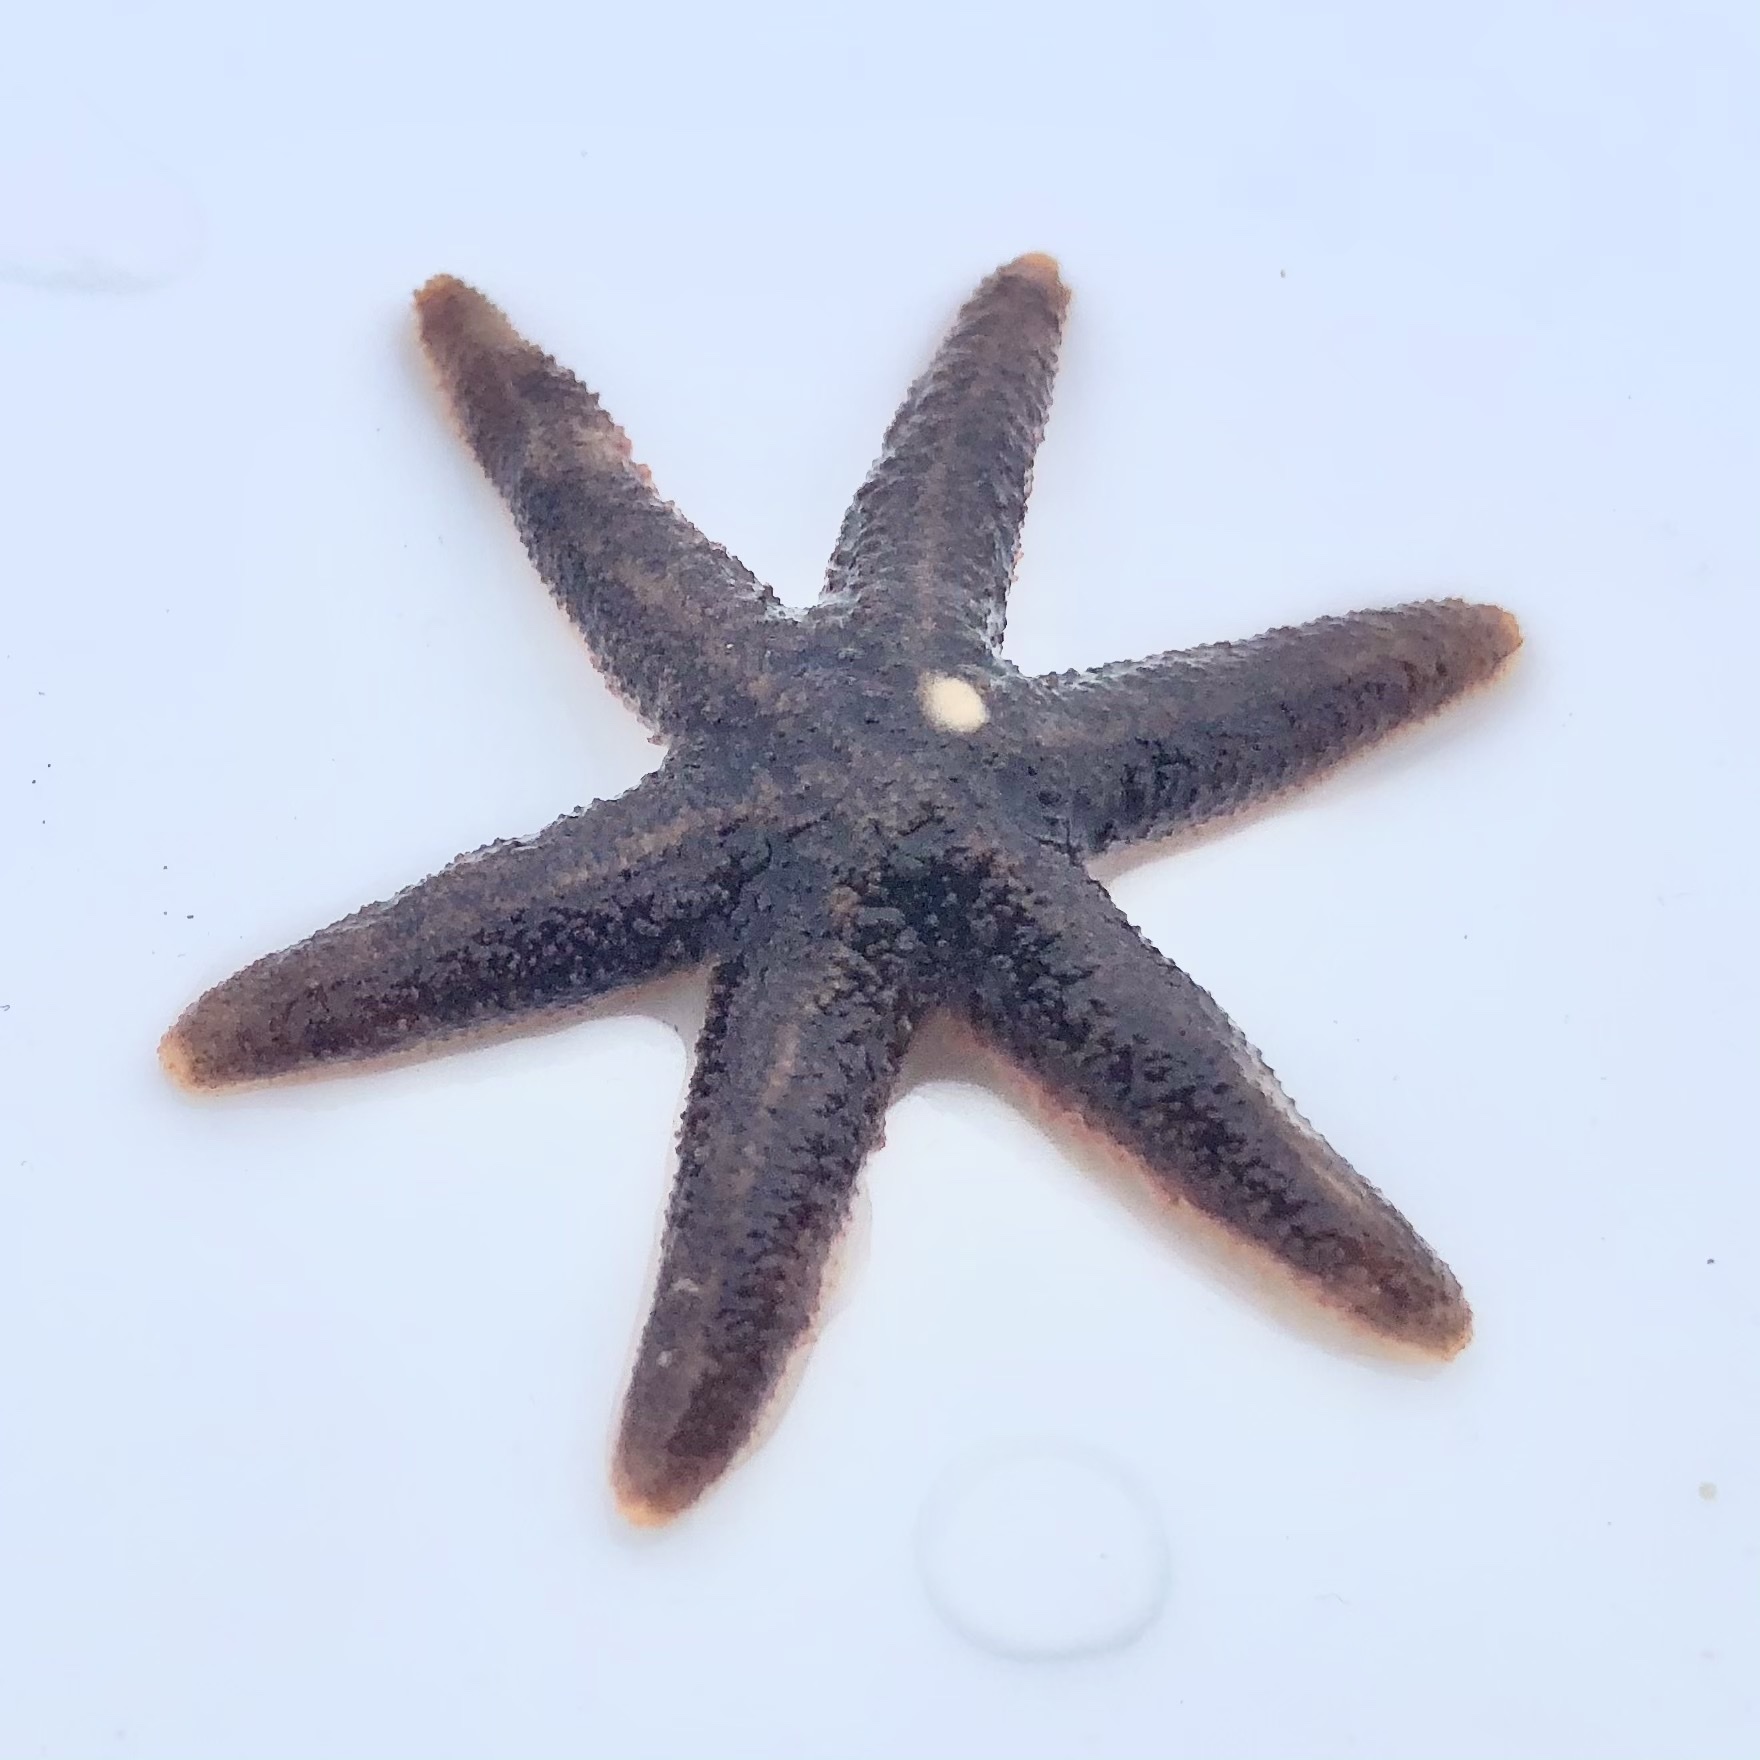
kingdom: Animalia
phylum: Echinodermata
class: Asteroidea
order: Forcipulatida
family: Asteriidae
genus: Leptasterias
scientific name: Leptasterias hexactis
